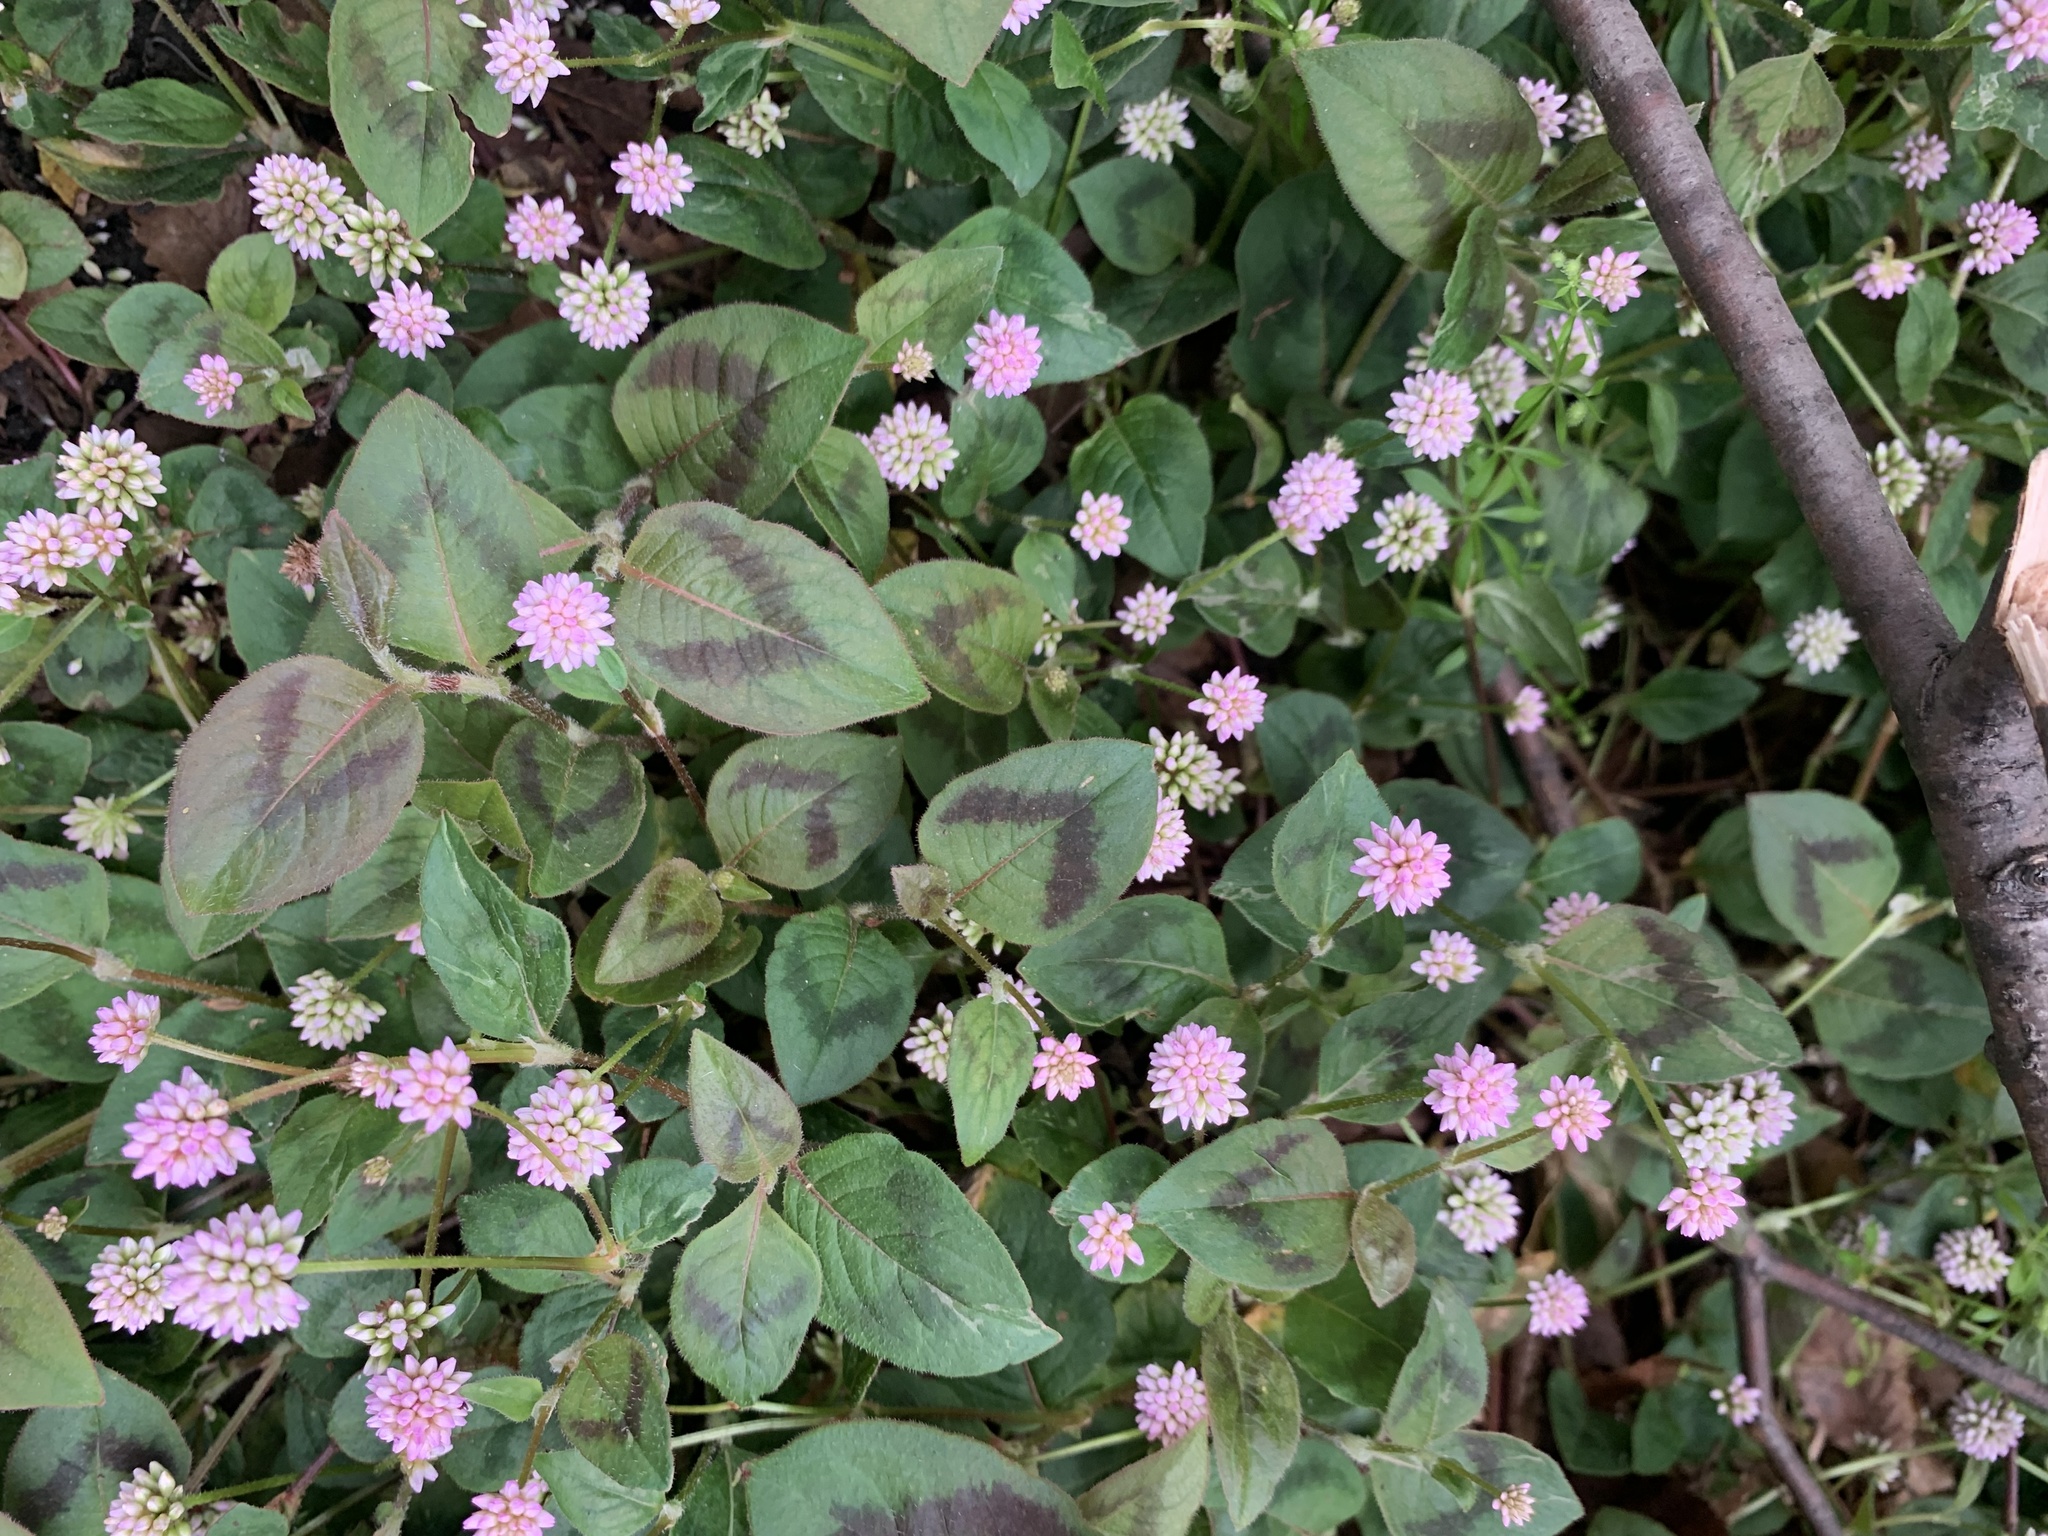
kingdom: Plantae
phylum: Tracheophyta
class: Magnoliopsida
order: Caryophyllales
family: Polygonaceae
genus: Persicaria
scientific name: Persicaria capitata
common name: Pinkhead smartweed
